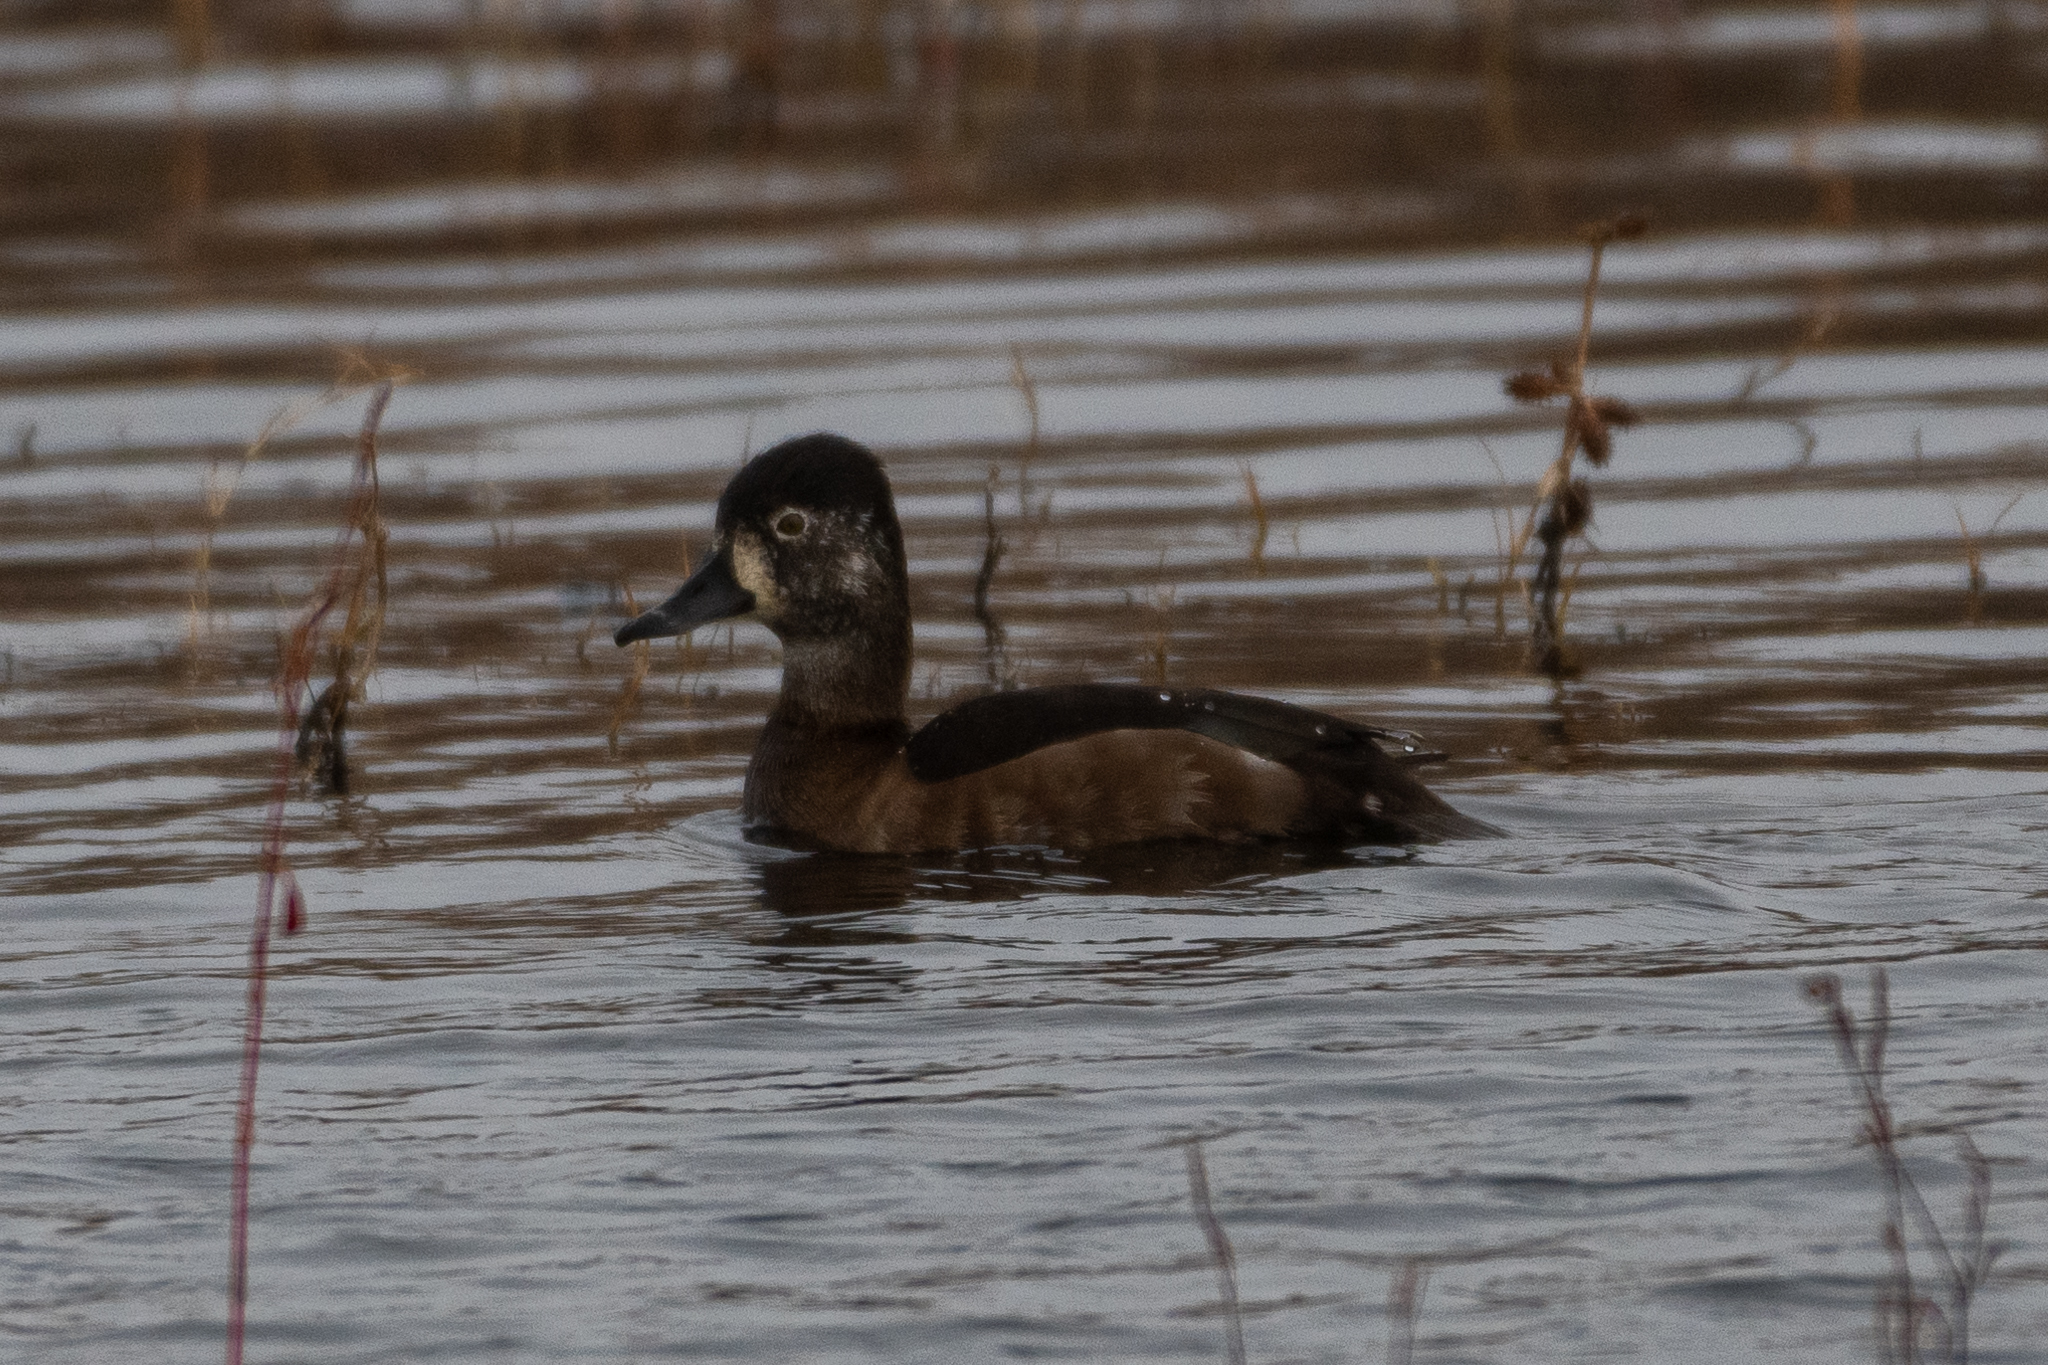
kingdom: Animalia
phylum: Chordata
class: Aves
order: Anseriformes
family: Anatidae
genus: Aythya
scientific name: Aythya collaris
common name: Ring-necked duck
